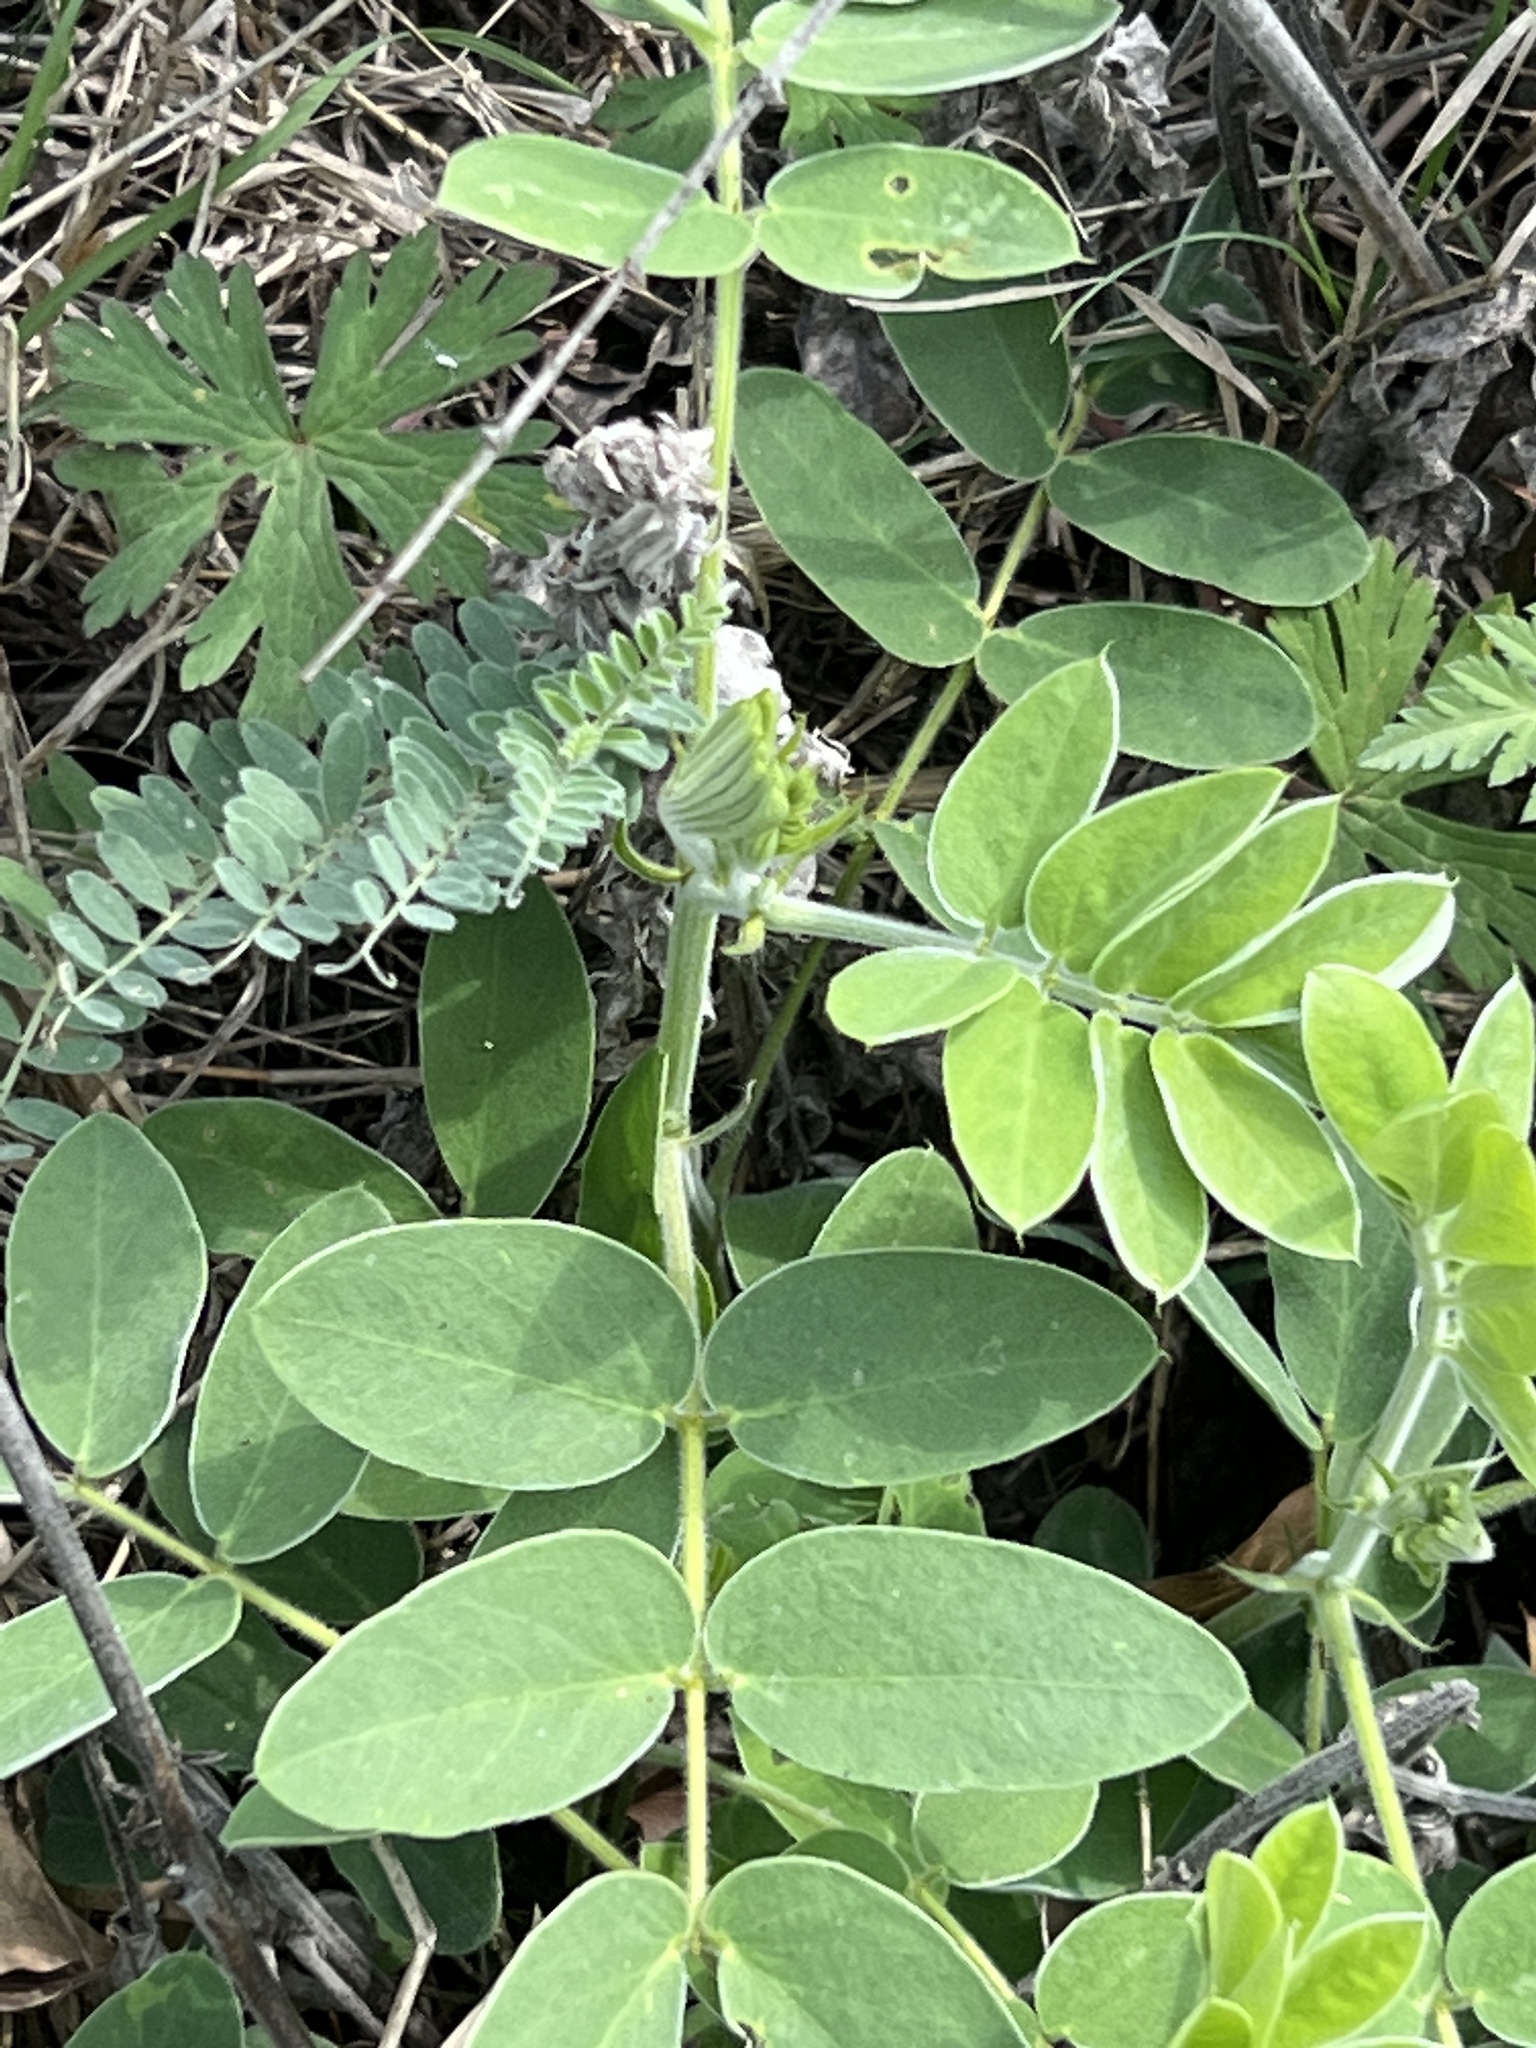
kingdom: Plantae
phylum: Tracheophyta
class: Magnoliopsida
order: Fabales
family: Fabaceae
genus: Senna
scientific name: Senna lindheimeriana
